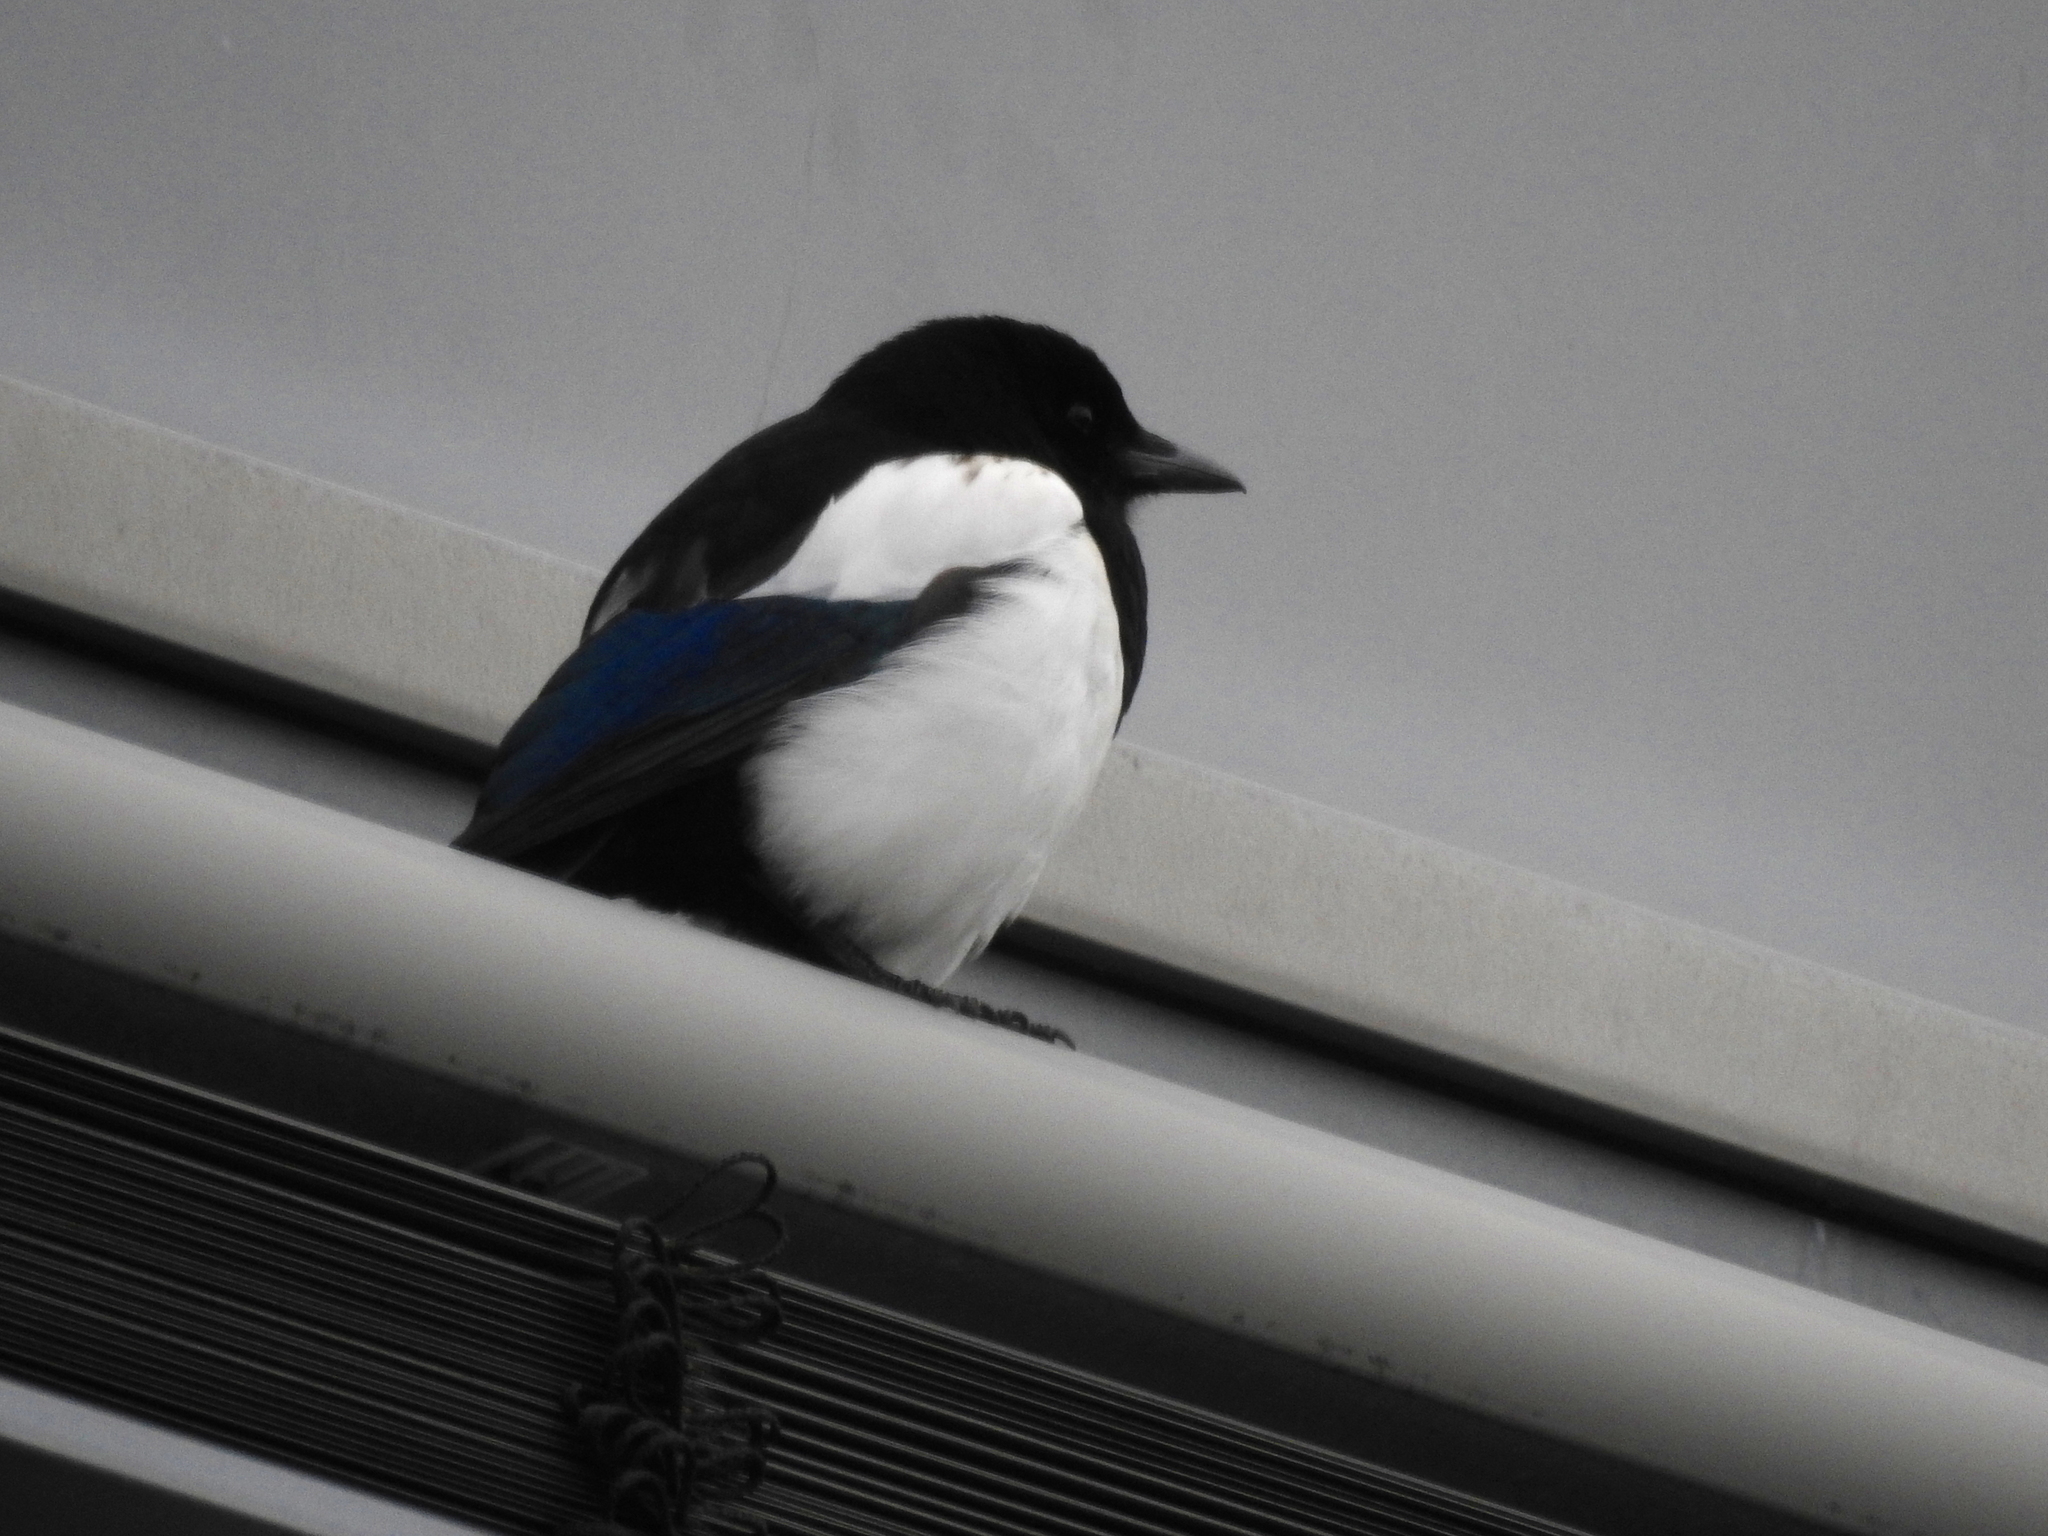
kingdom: Animalia
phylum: Chordata
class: Aves
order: Passeriformes
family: Corvidae
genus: Pica
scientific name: Pica pica
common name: Eurasian magpie
